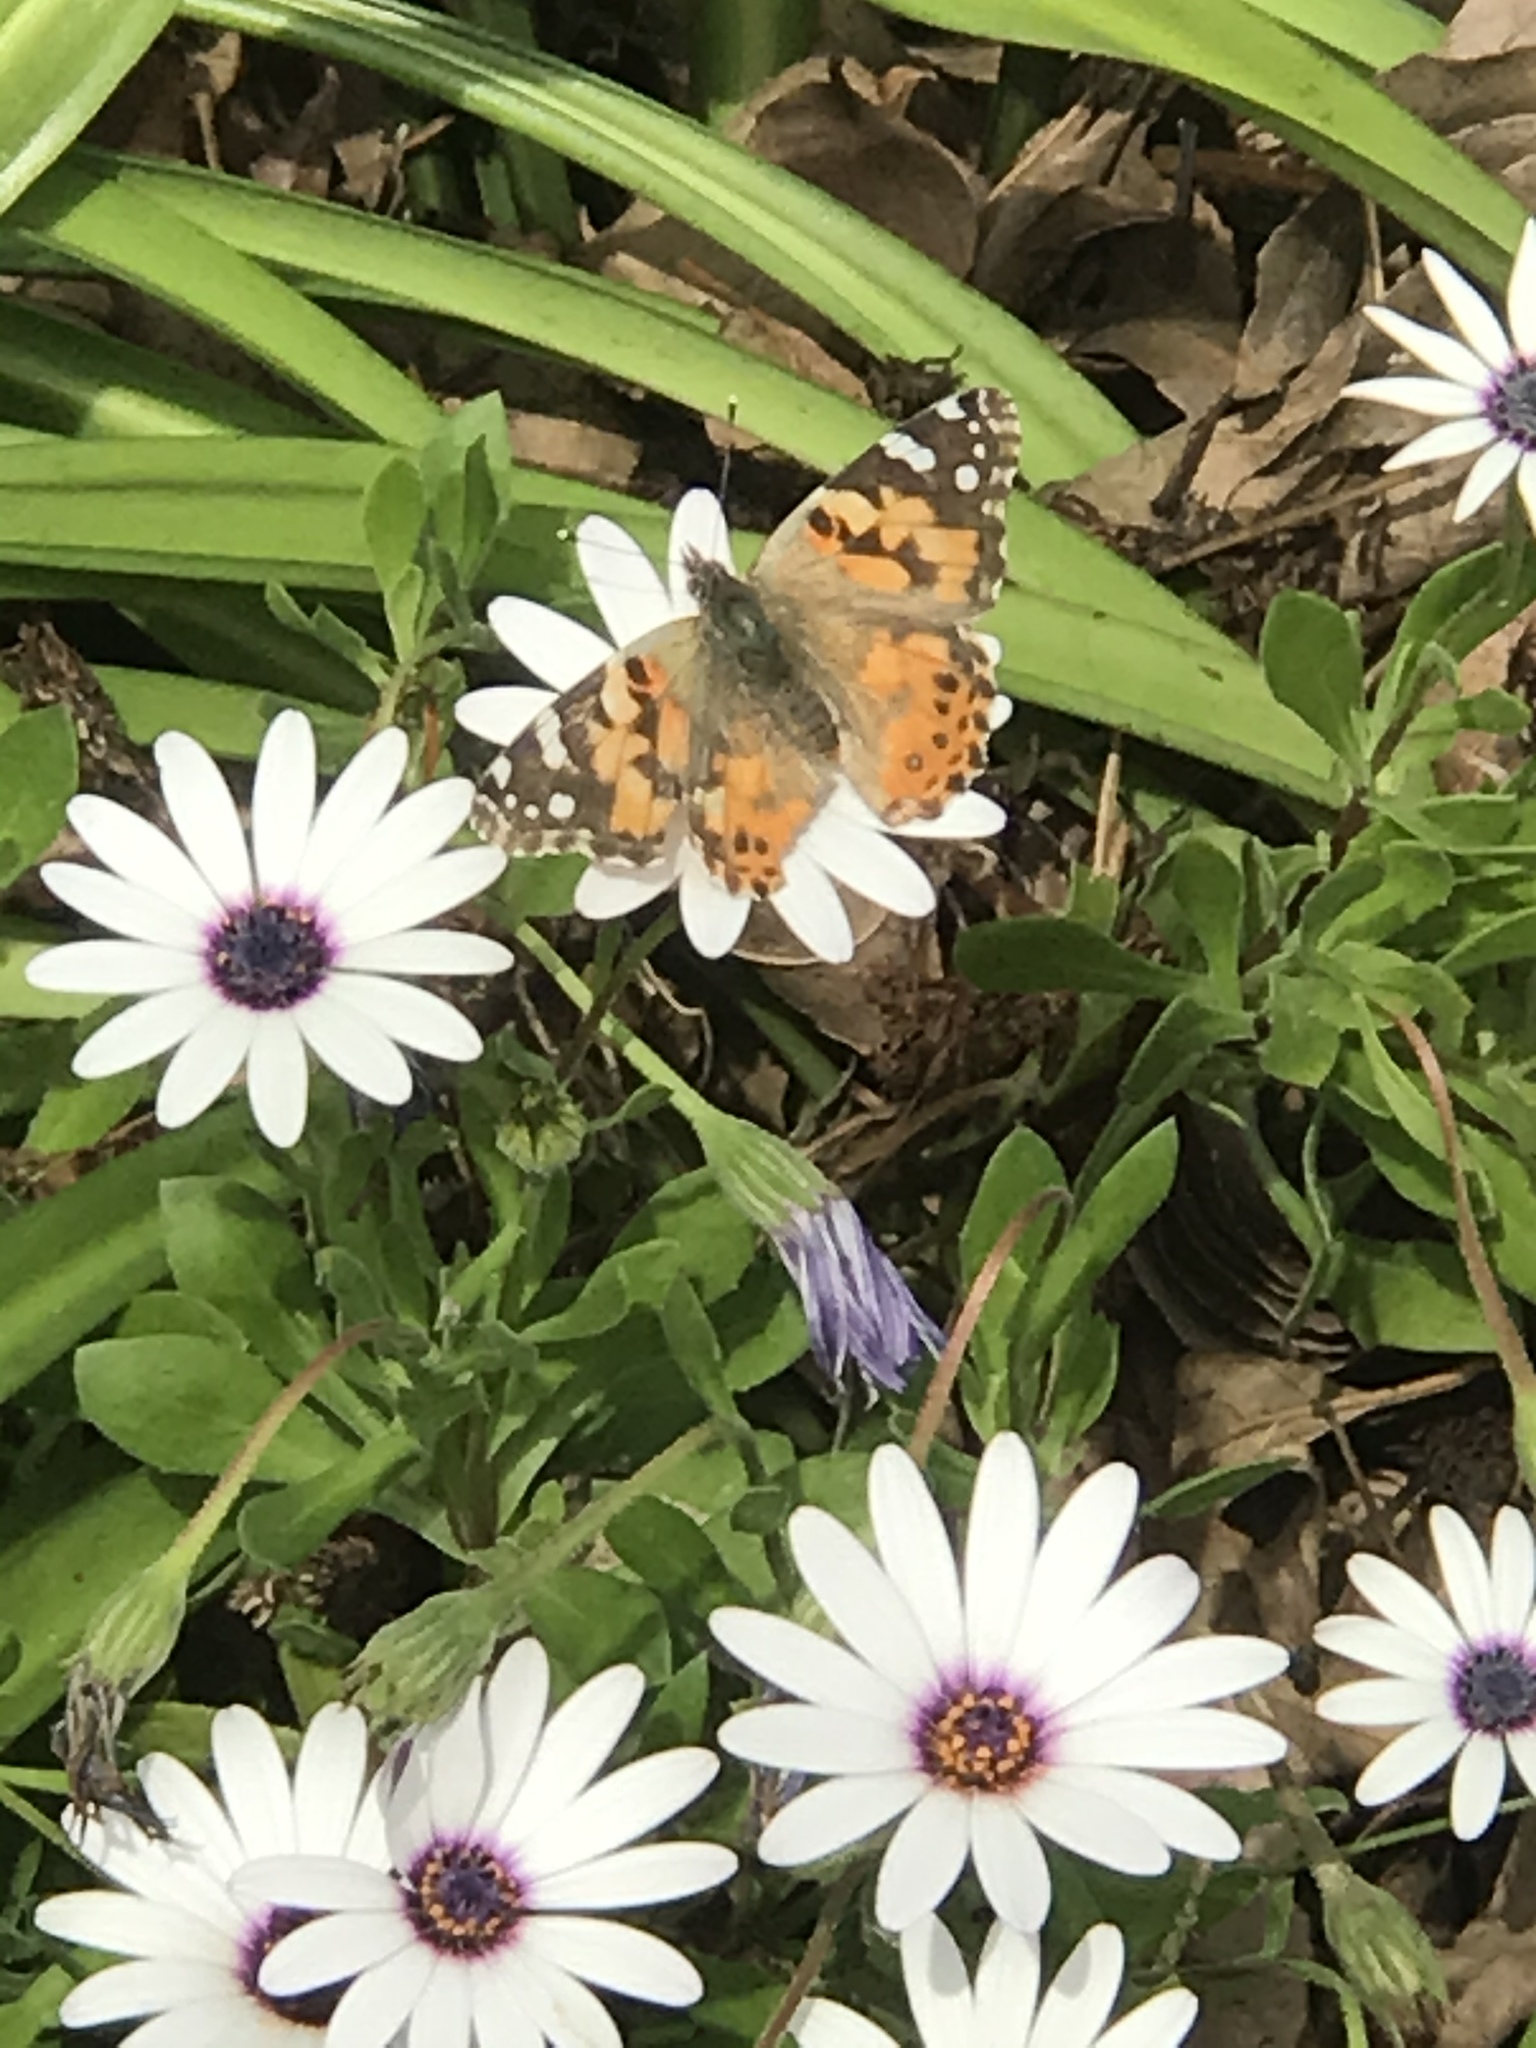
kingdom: Animalia
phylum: Arthropoda
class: Insecta
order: Lepidoptera
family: Nymphalidae
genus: Vanessa
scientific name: Vanessa cardui
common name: Painted lady
